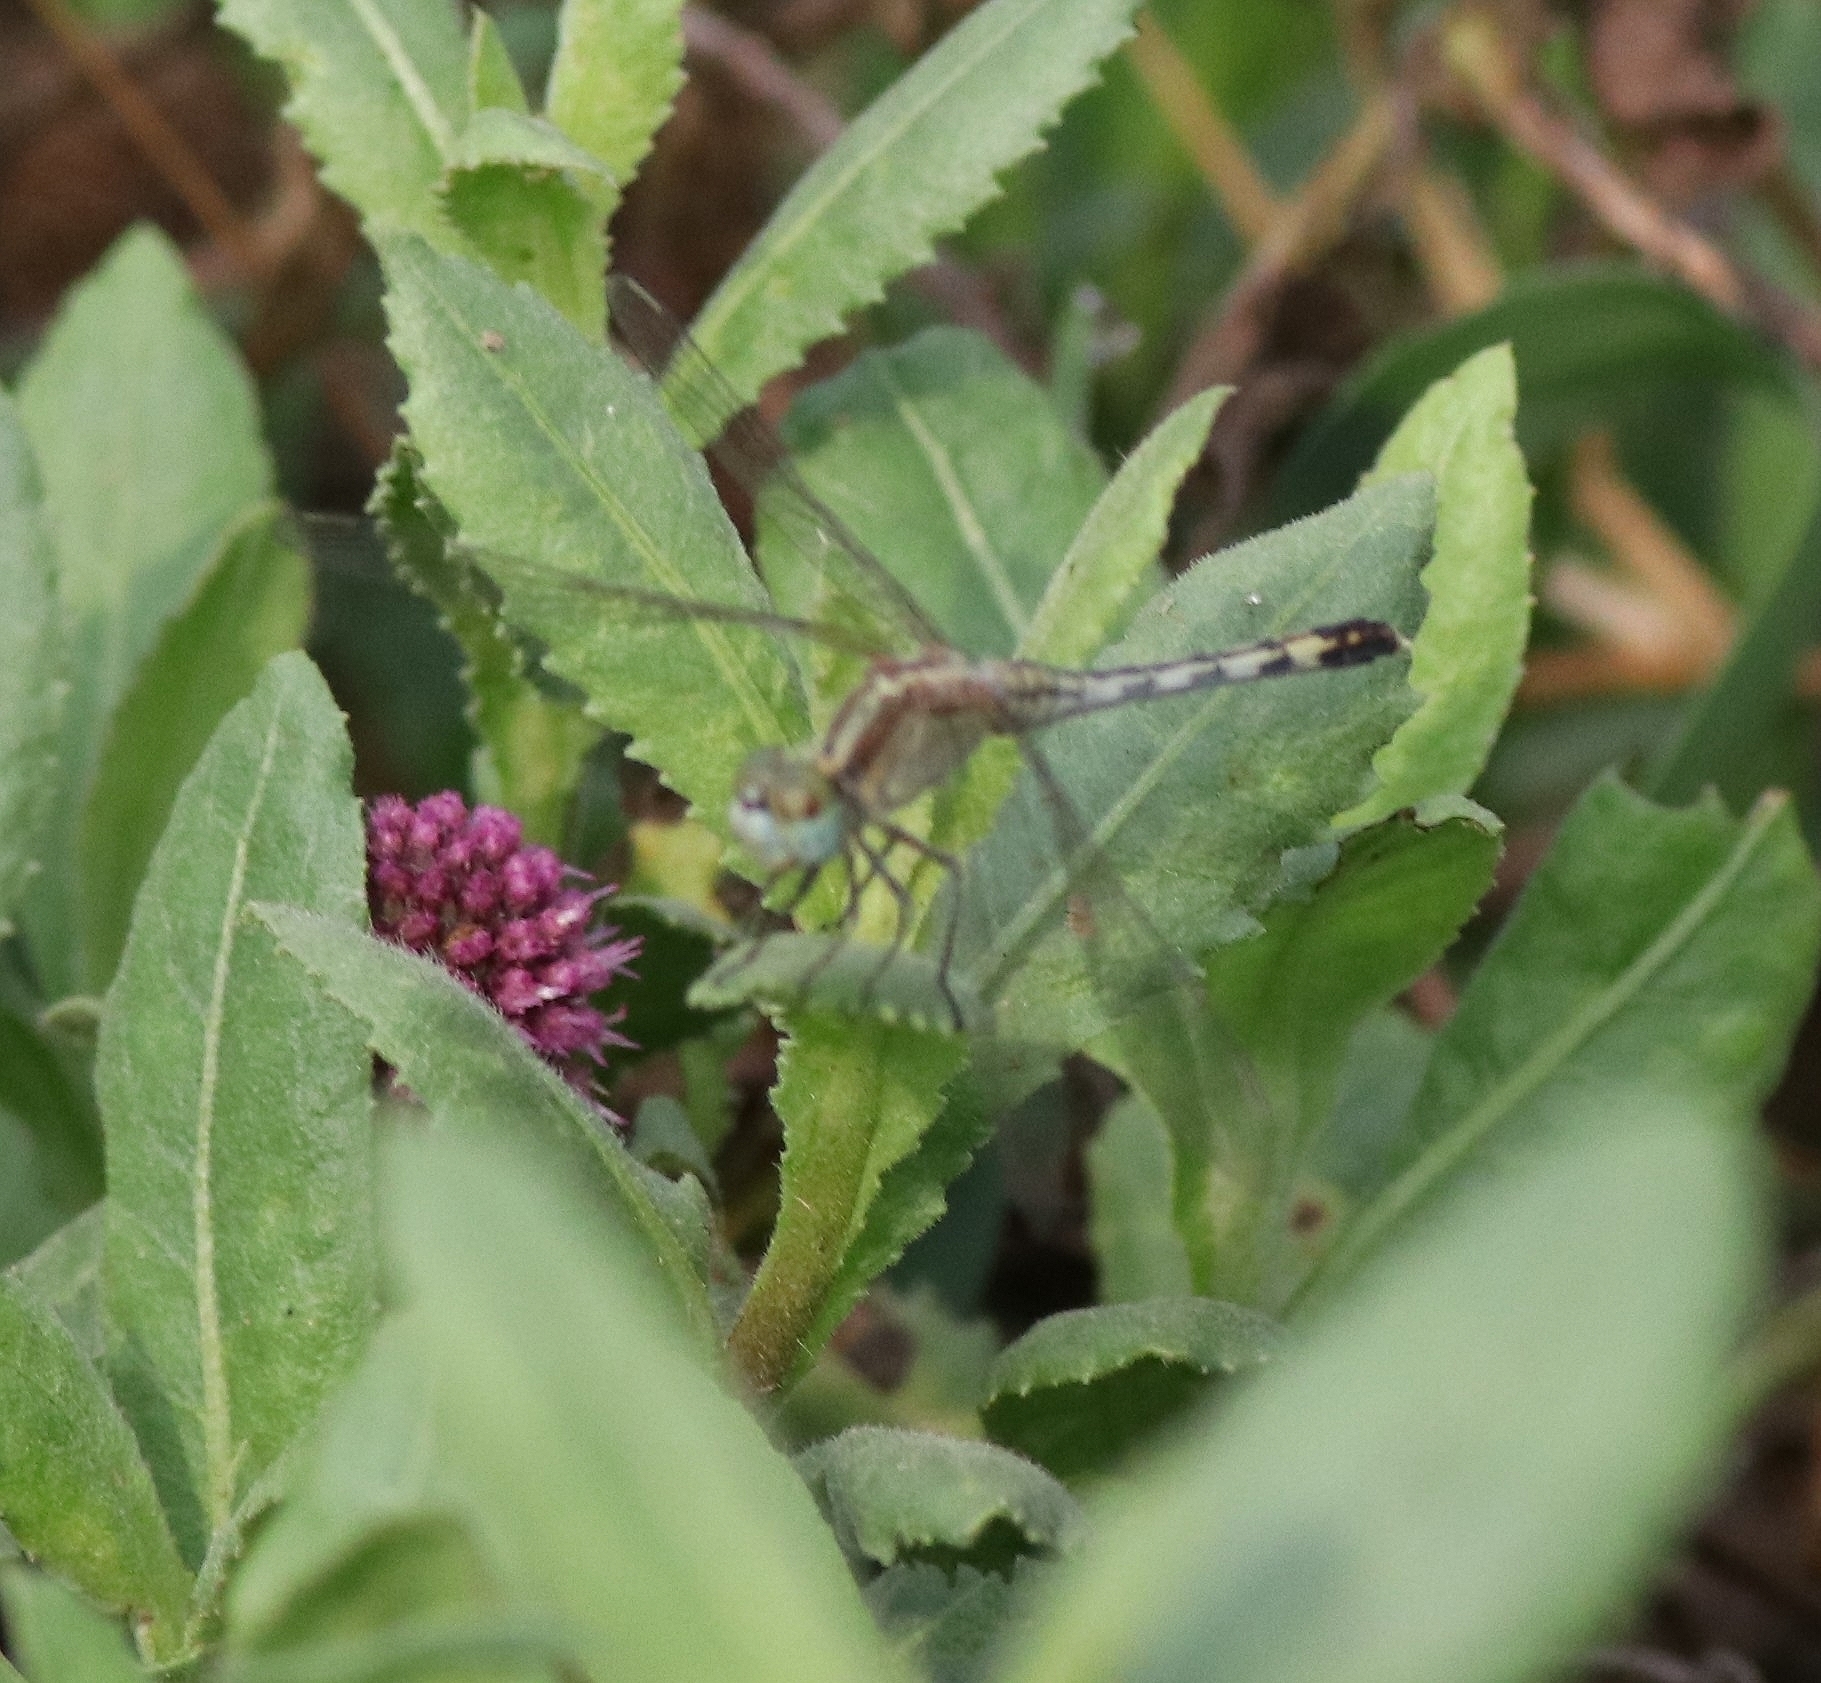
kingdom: Animalia
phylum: Arthropoda
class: Insecta
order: Odonata
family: Libellulidae
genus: Diplacodes
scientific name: Diplacodes trivialis
